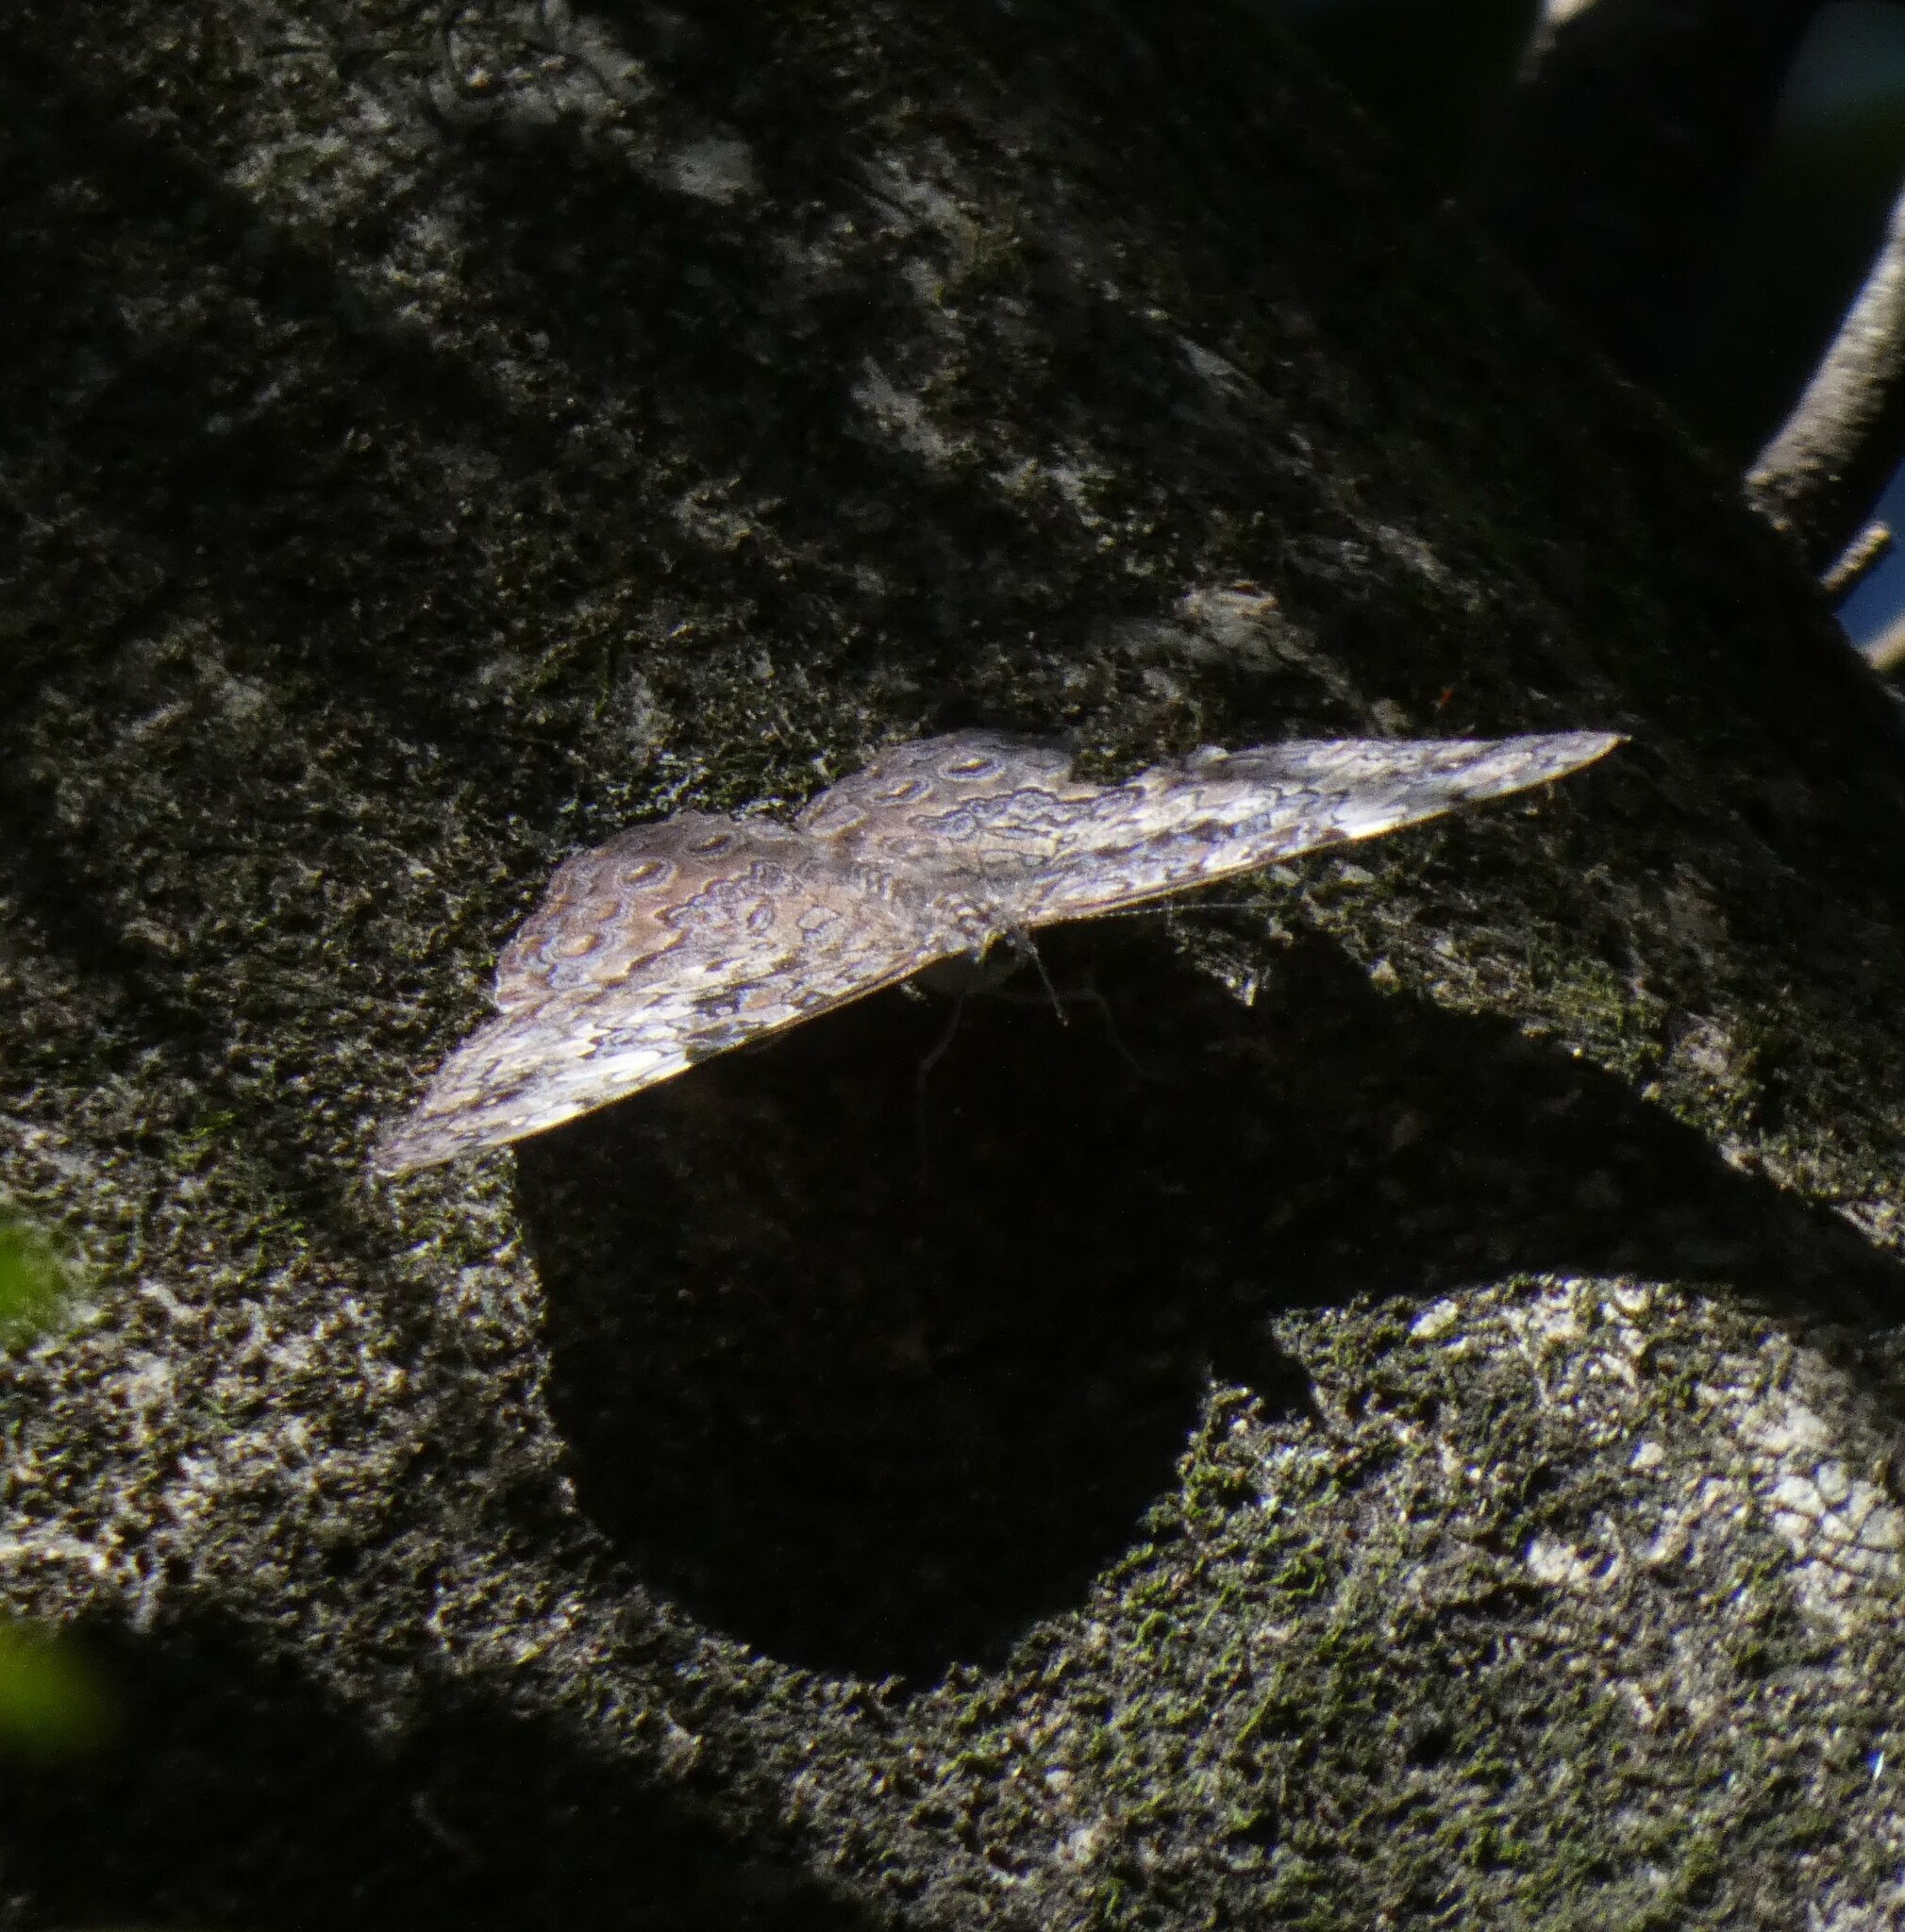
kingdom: Animalia
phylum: Arthropoda
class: Insecta
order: Lepidoptera
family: Nymphalidae
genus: Hamadryas
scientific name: Hamadryas epinome
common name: Epinome cracker
